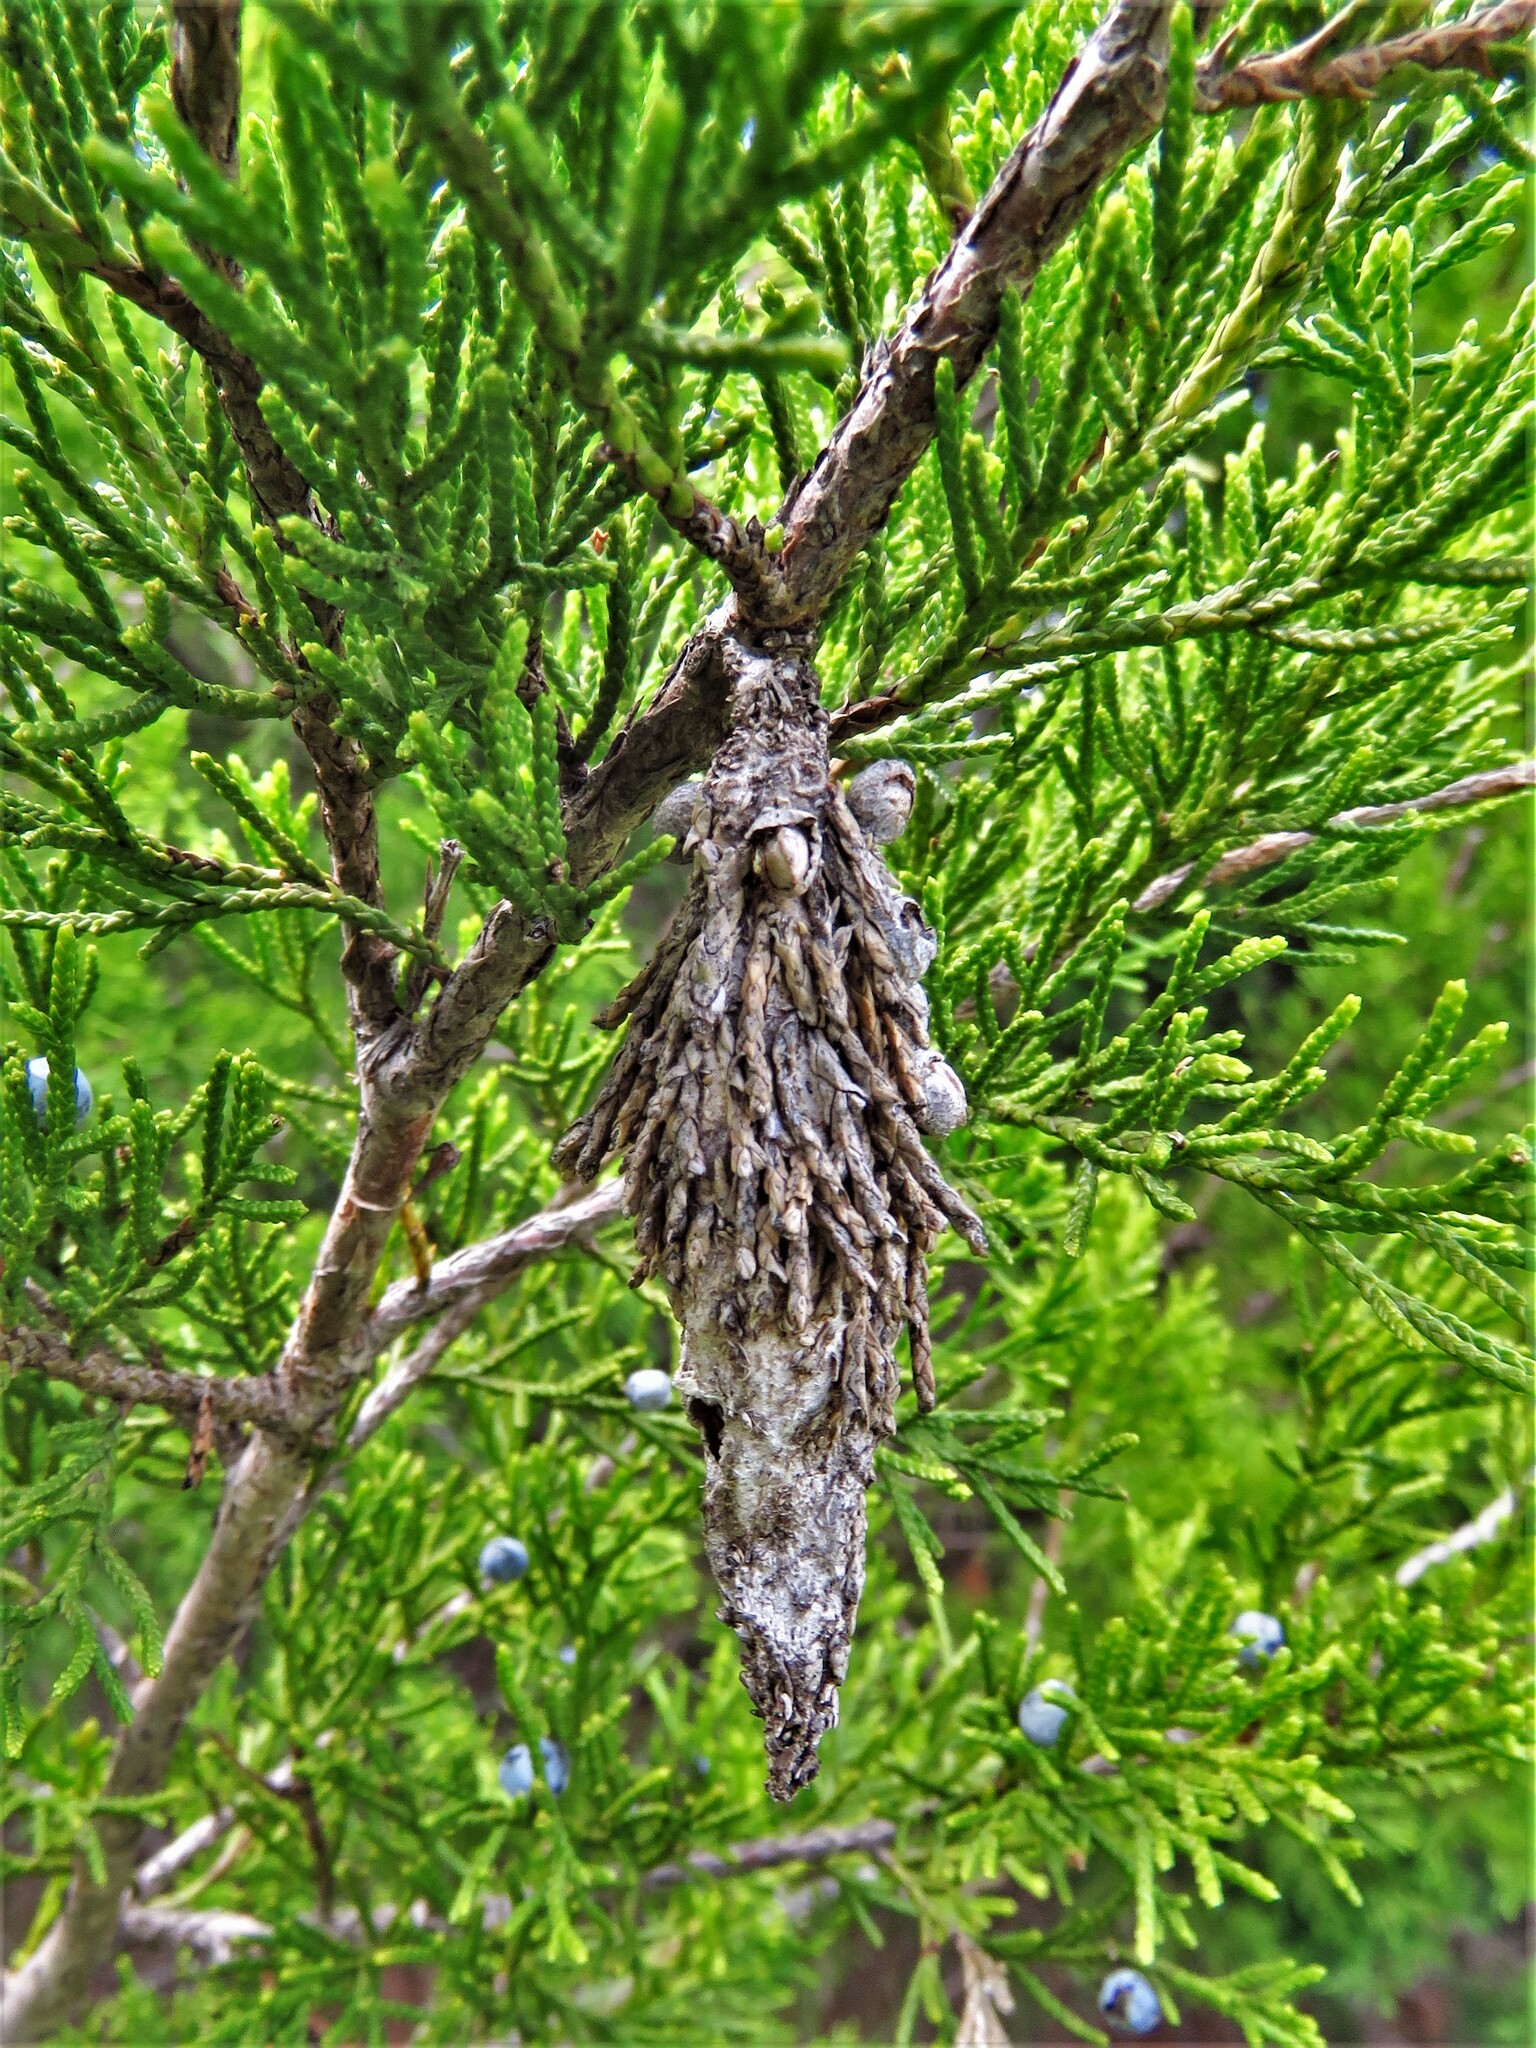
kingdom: Animalia
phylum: Arthropoda
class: Insecta
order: Lepidoptera
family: Psychidae
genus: Thyridopteryx
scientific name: Thyridopteryx ephemeraeformis
